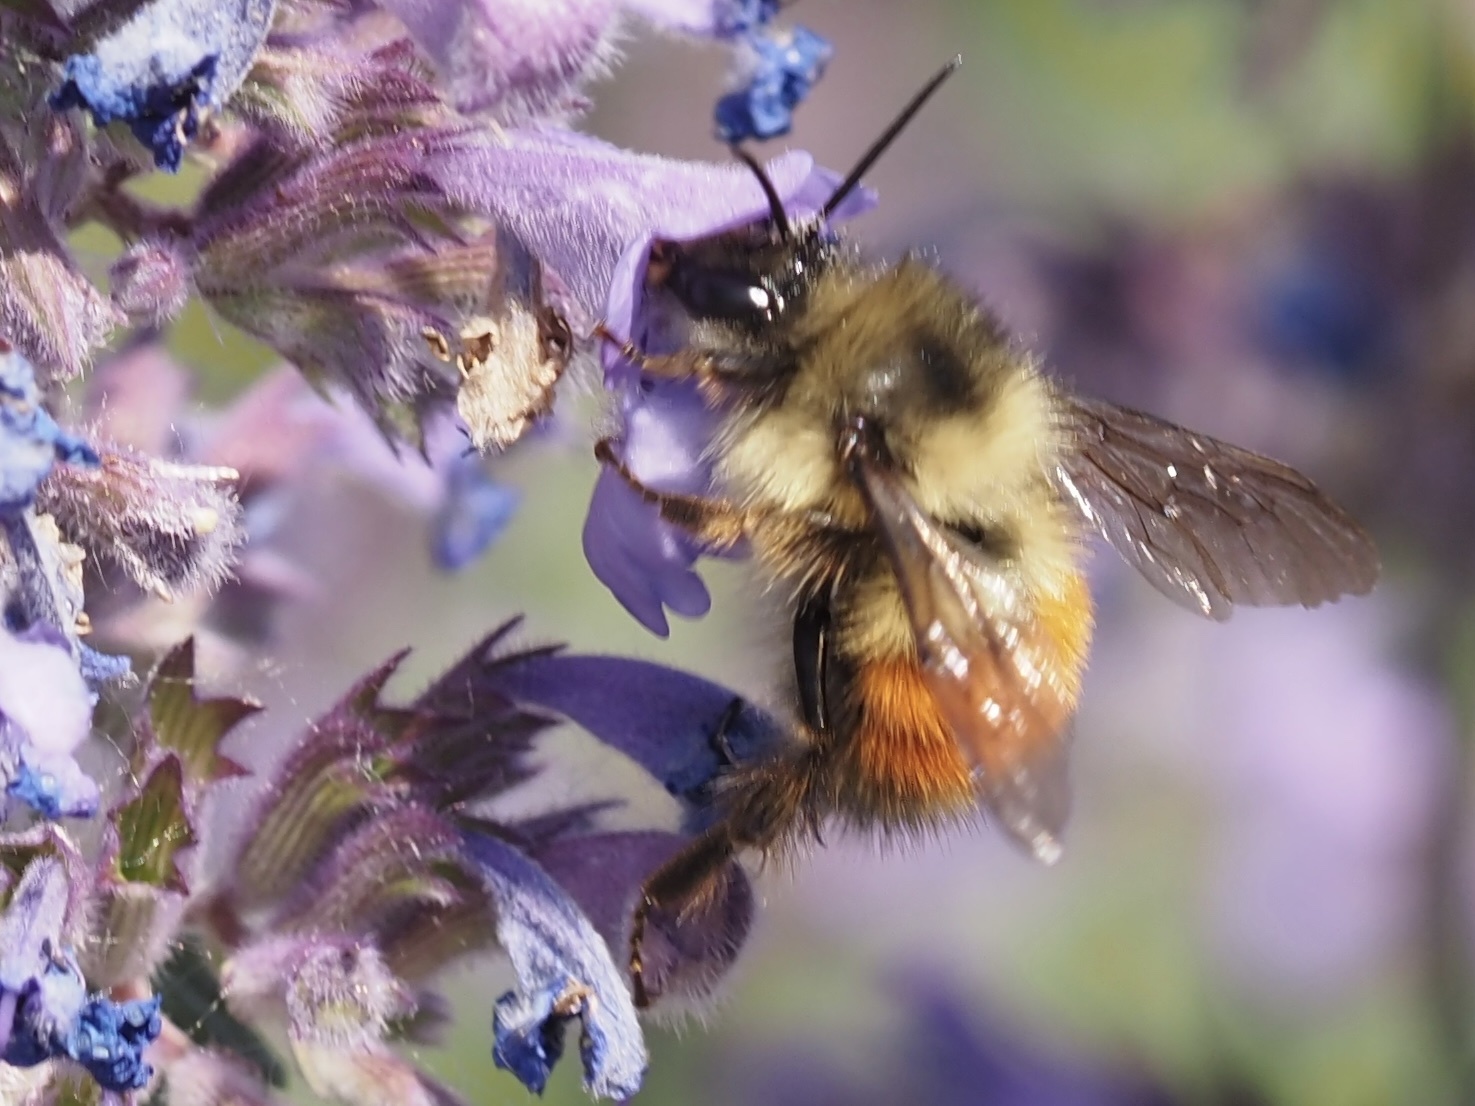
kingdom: Animalia
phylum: Arthropoda
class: Insecta
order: Hymenoptera
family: Apidae
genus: Bombus
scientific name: Bombus melanopygus
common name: Black tail bumble bee
